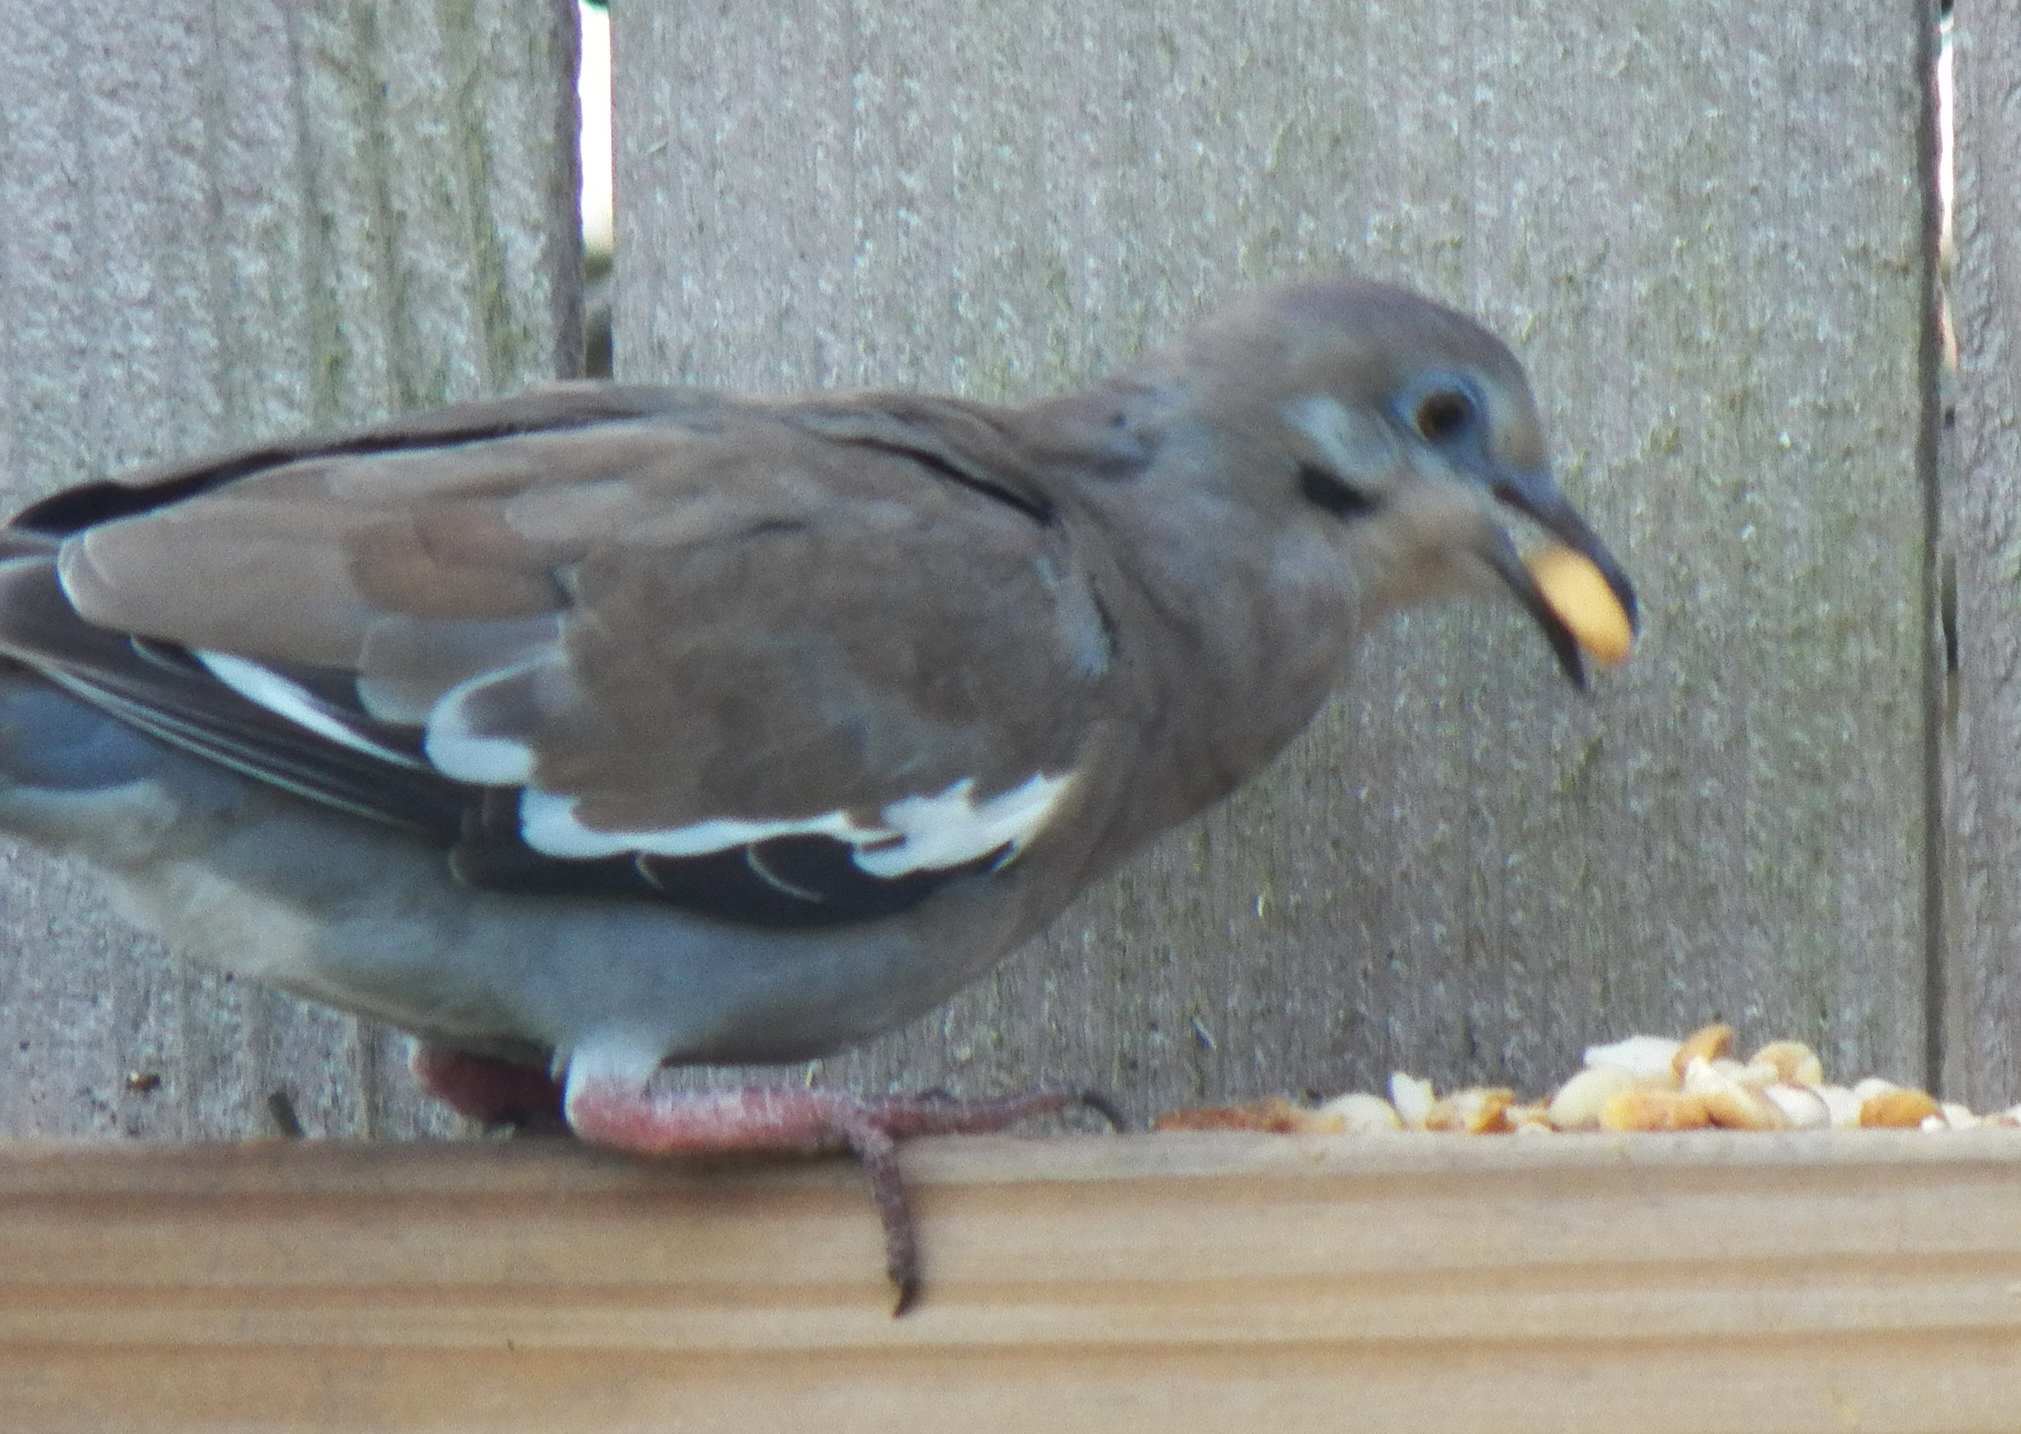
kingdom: Animalia
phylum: Chordata
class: Aves
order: Columbiformes
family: Columbidae
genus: Zenaida
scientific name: Zenaida asiatica
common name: White-winged dove
